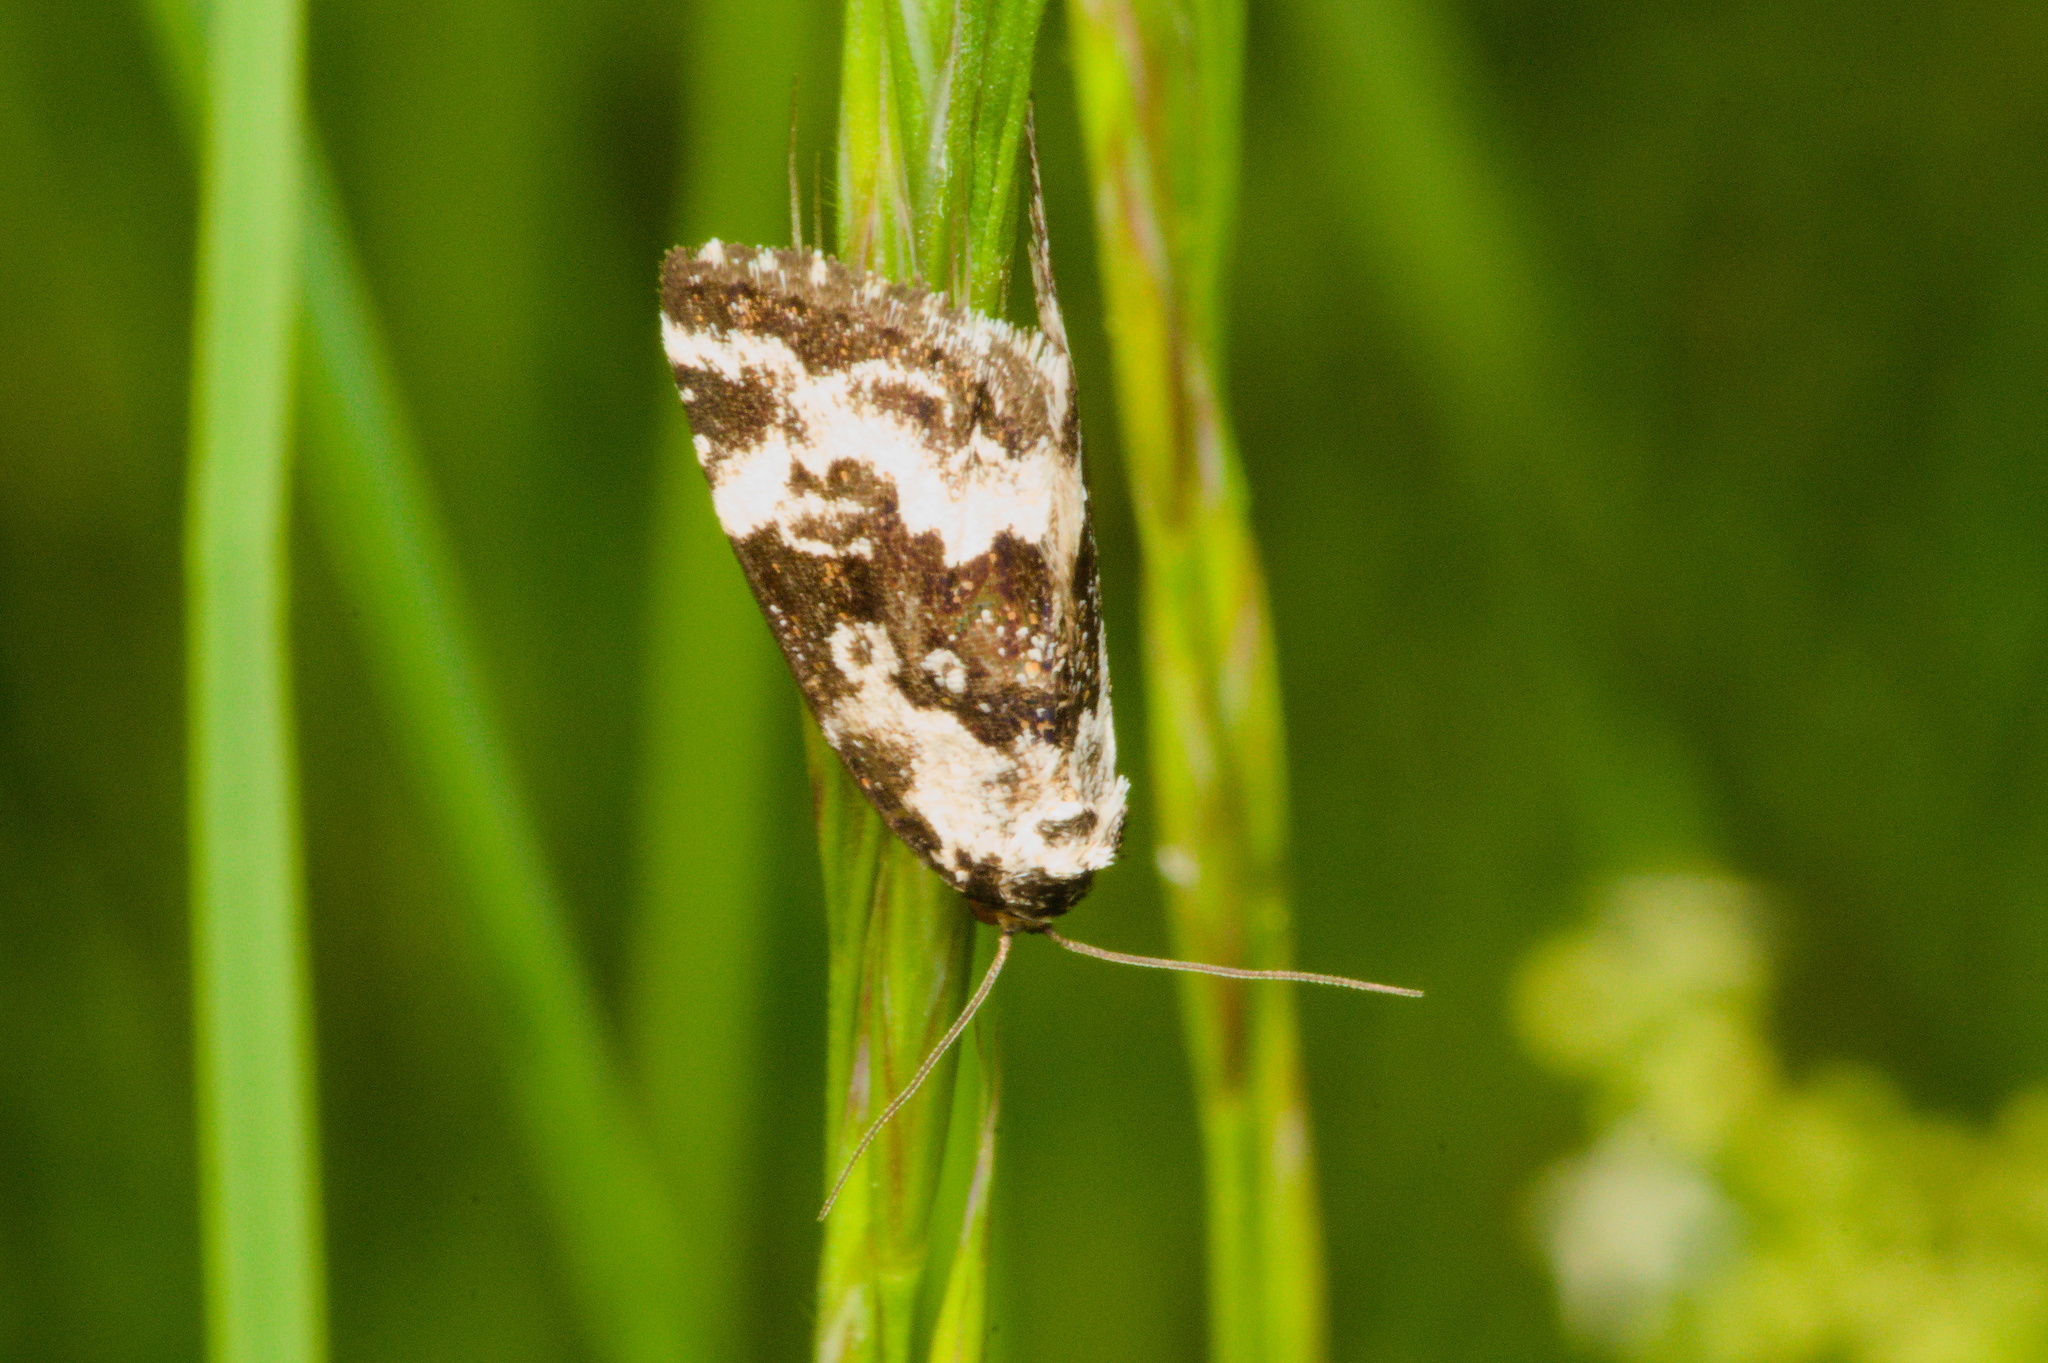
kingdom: Animalia
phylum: Arthropoda
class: Insecta
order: Lepidoptera
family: Noctuidae
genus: Deltote
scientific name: Deltote deceptoria
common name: Pretty marbled
